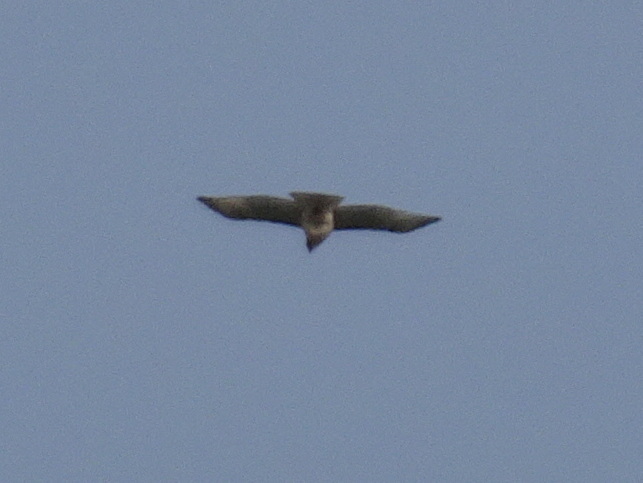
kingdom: Animalia
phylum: Chordata
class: Aves
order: Accipitriformes
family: Accipitridae
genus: Buteo
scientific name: Buteo jamaicensis
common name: Red-tailed hawk
